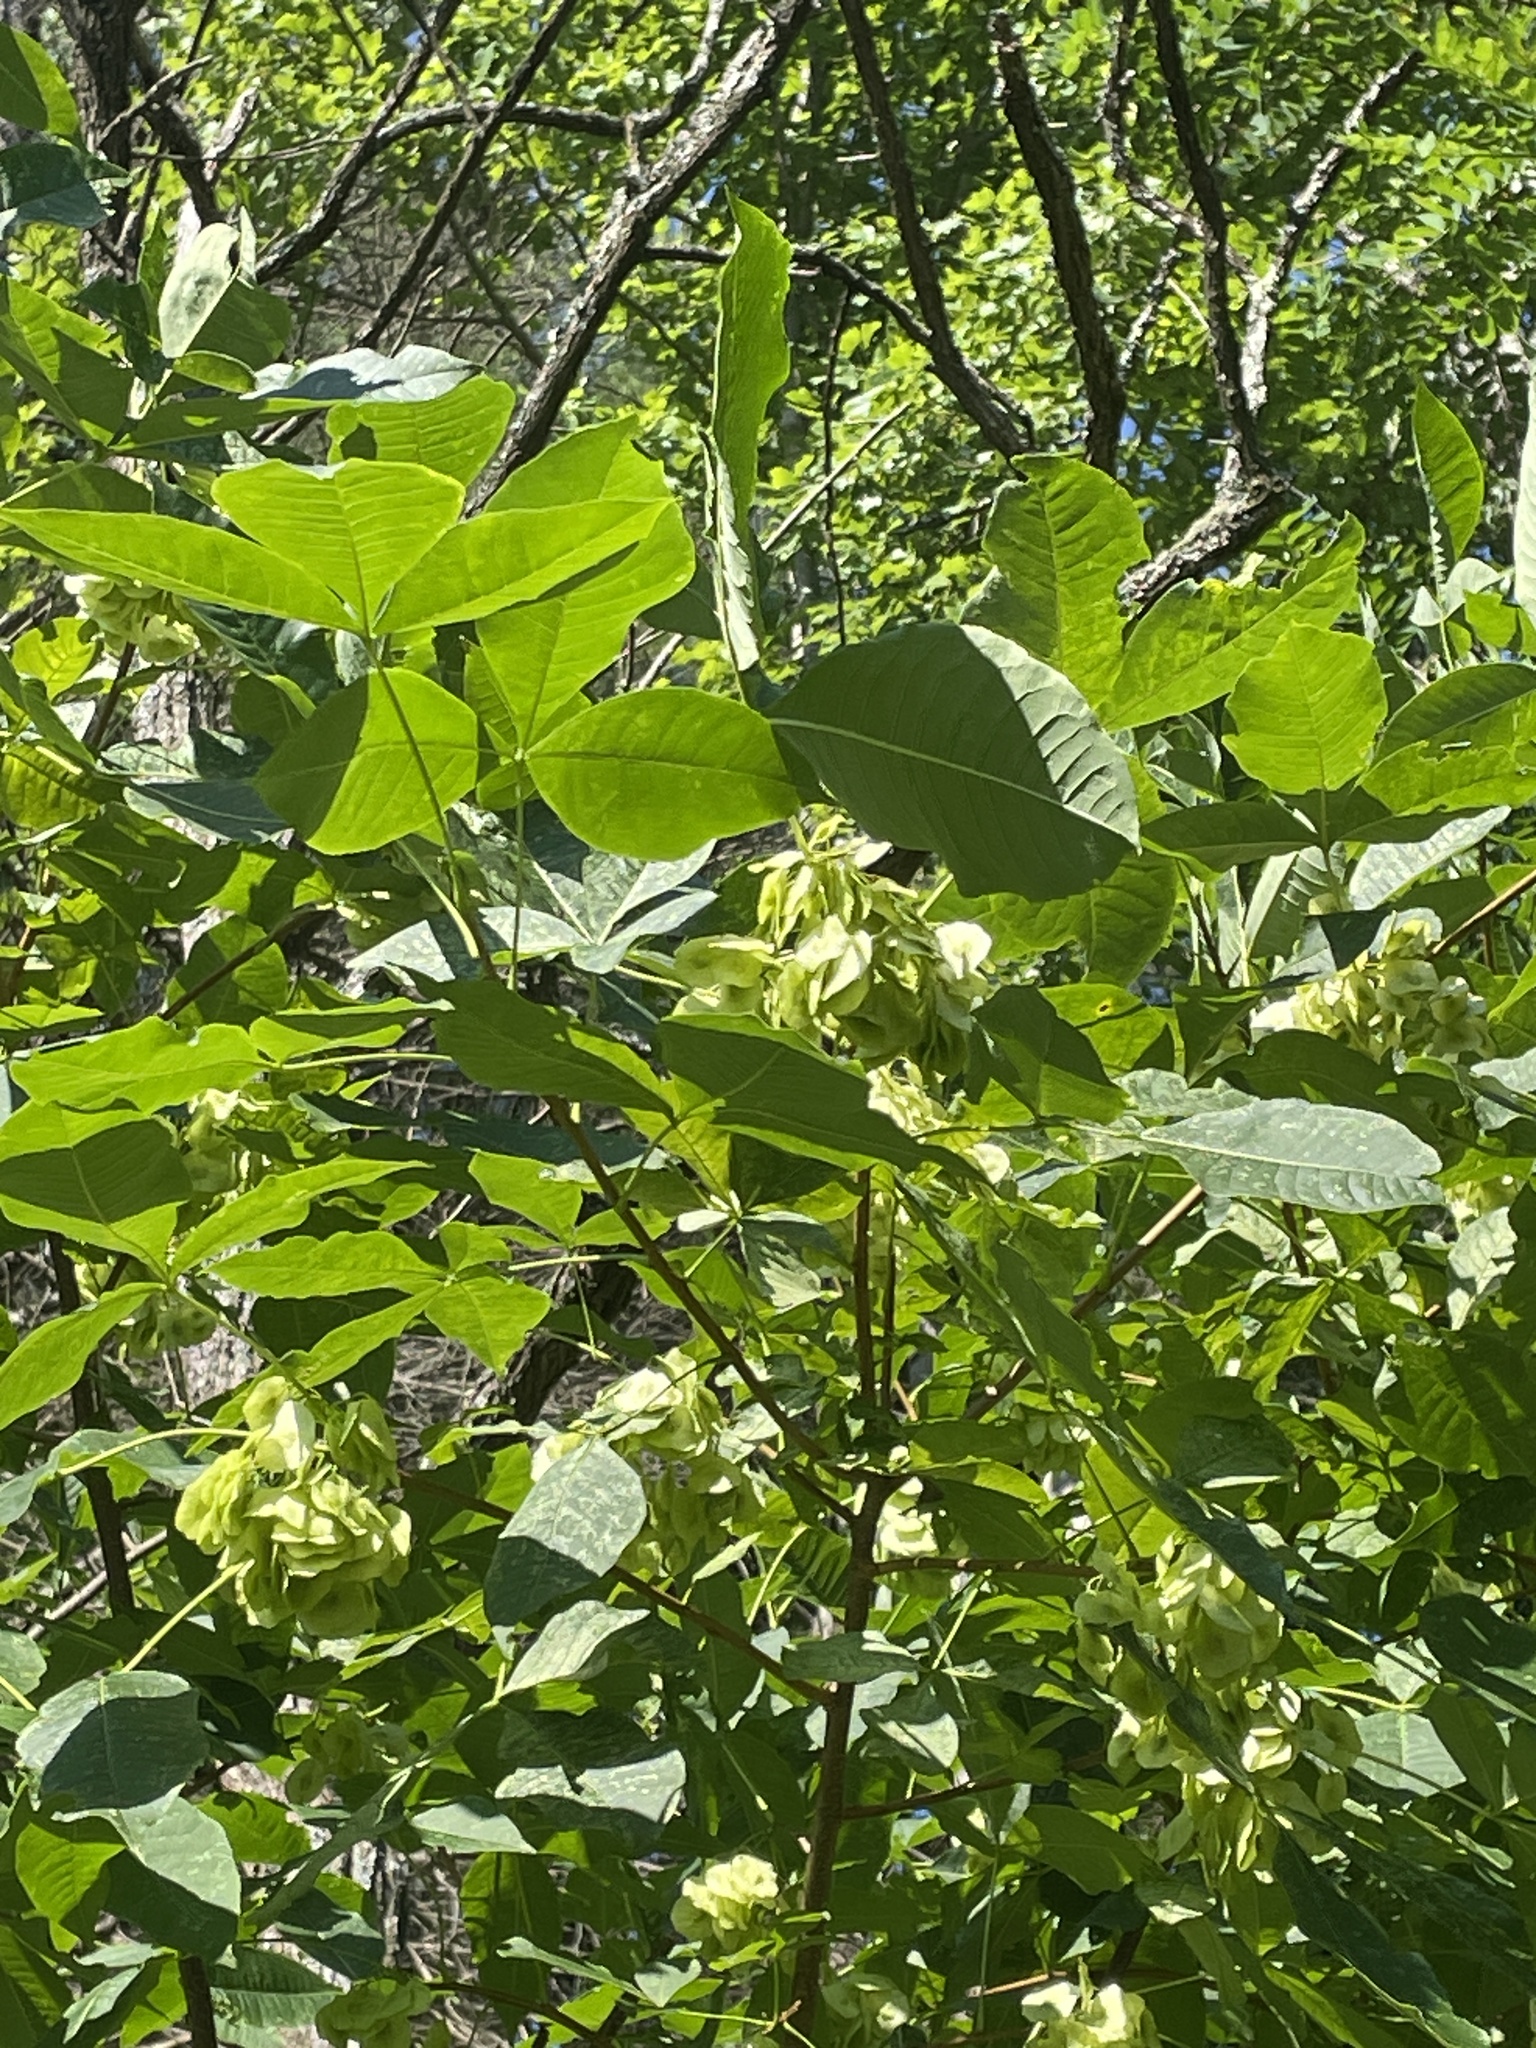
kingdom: Plantae
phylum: Tracheophyta
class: Magnoliopsida
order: Sapindales
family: Rutaceae
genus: Ptelea
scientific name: Ptelea trifoliata
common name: Common hop-tree
